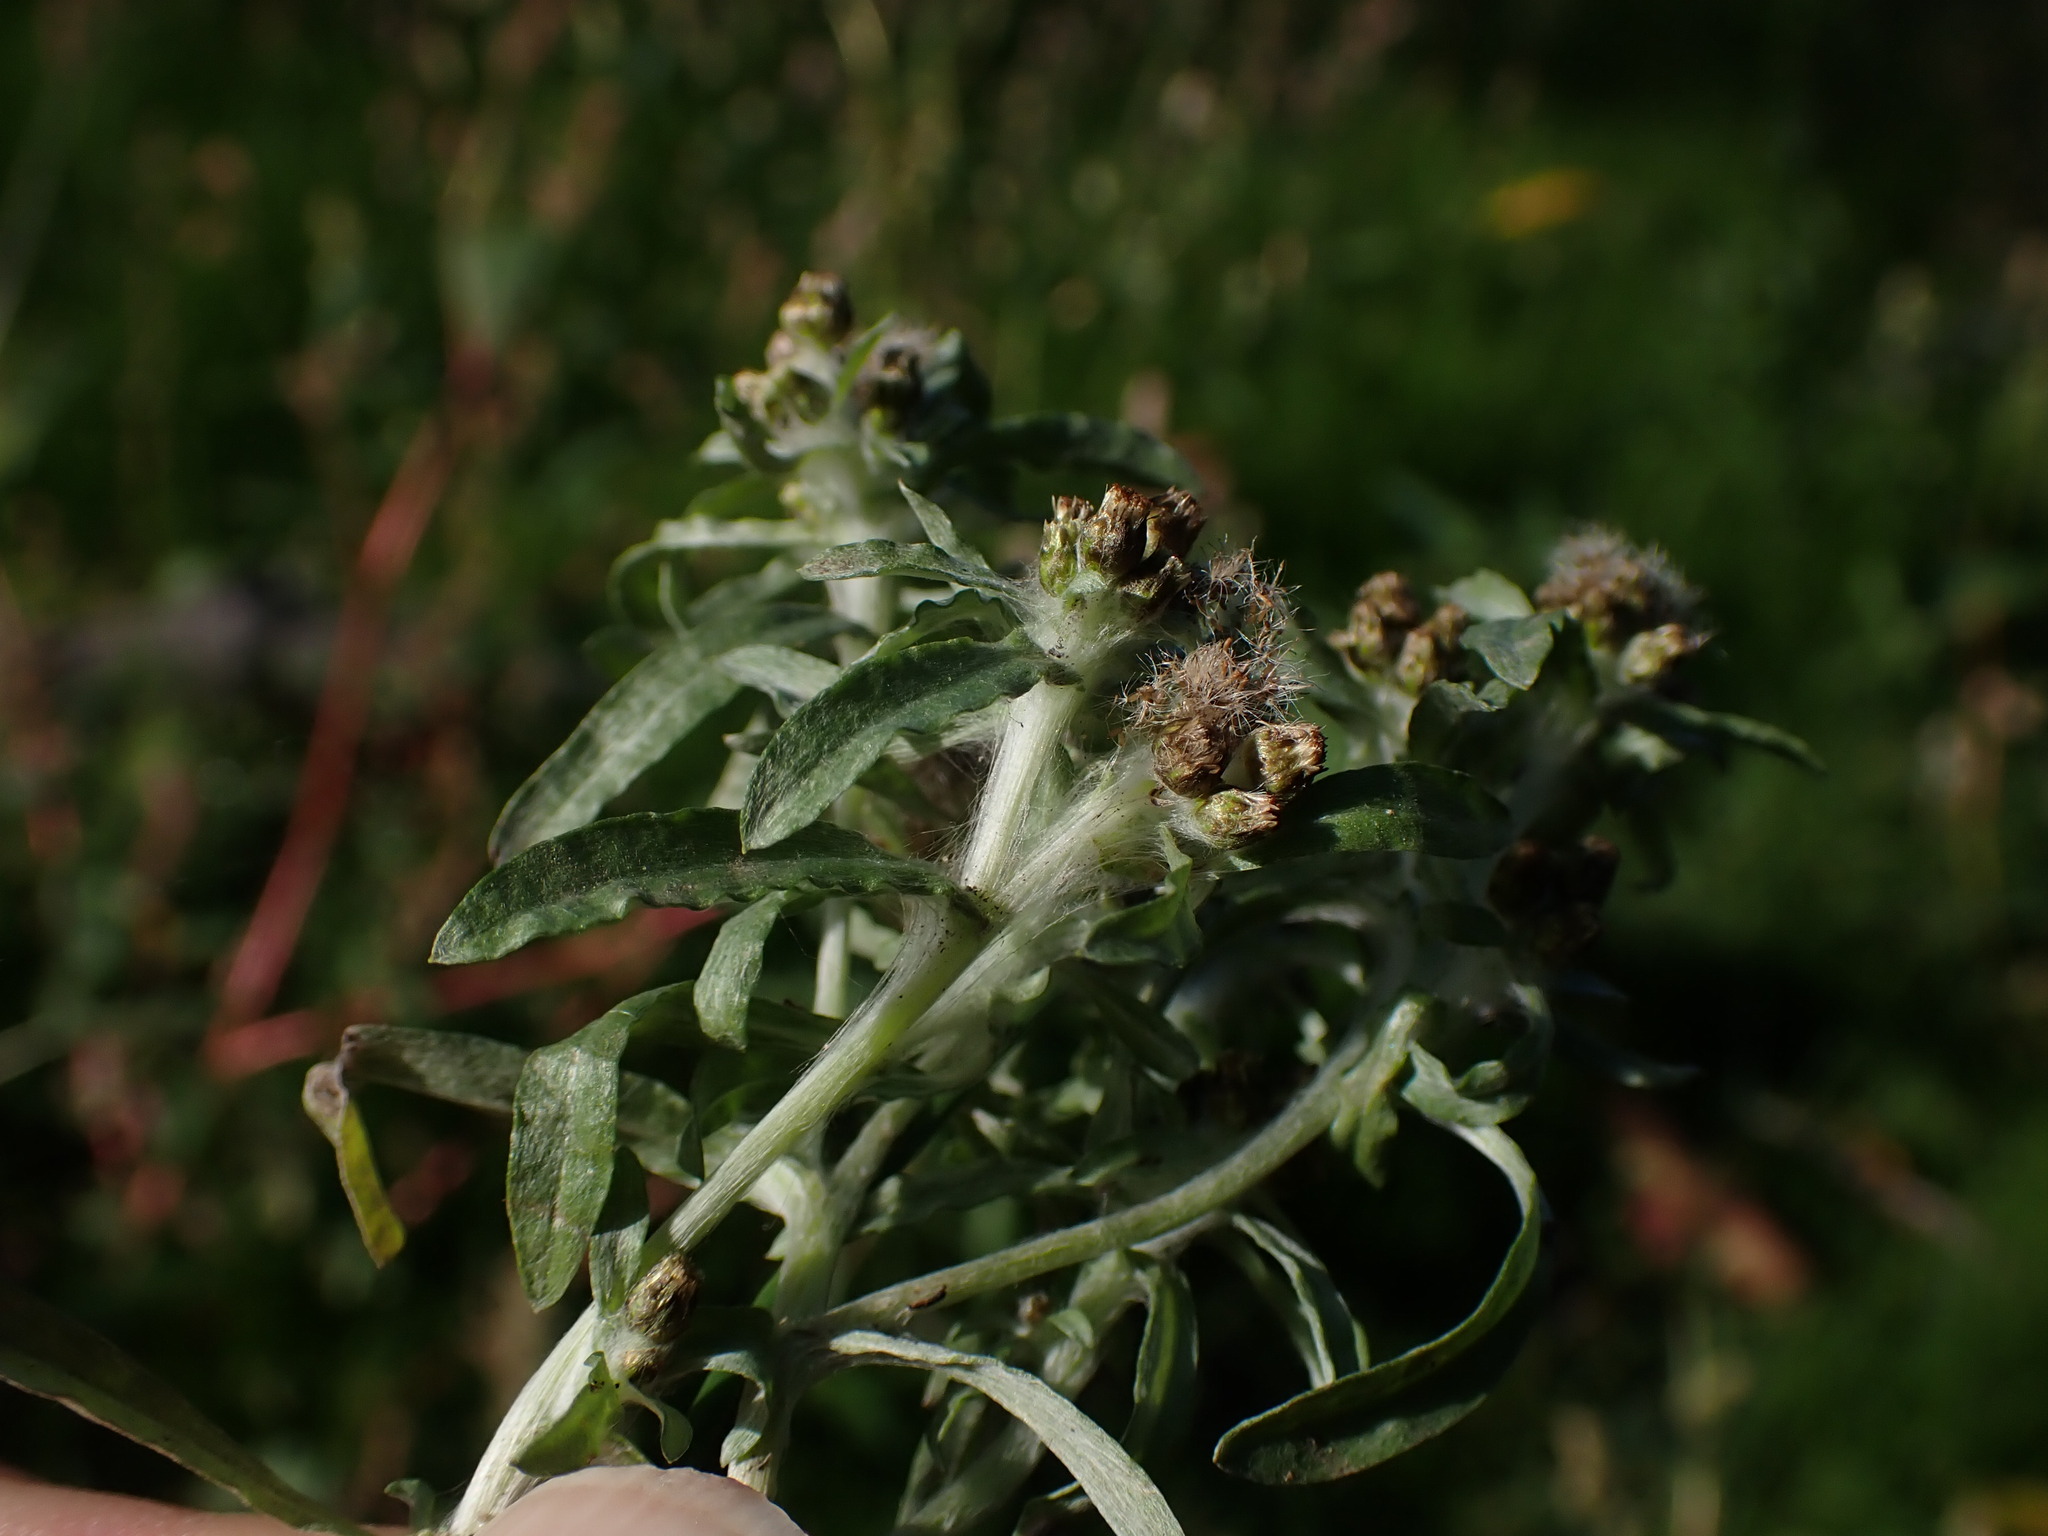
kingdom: Plantae
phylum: Tracheophyta
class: Magnoliopsida
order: Asterales
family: Asteraceae
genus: Gnaphalium
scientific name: Gnaphalium uliginosum
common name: Marsh cudweed
